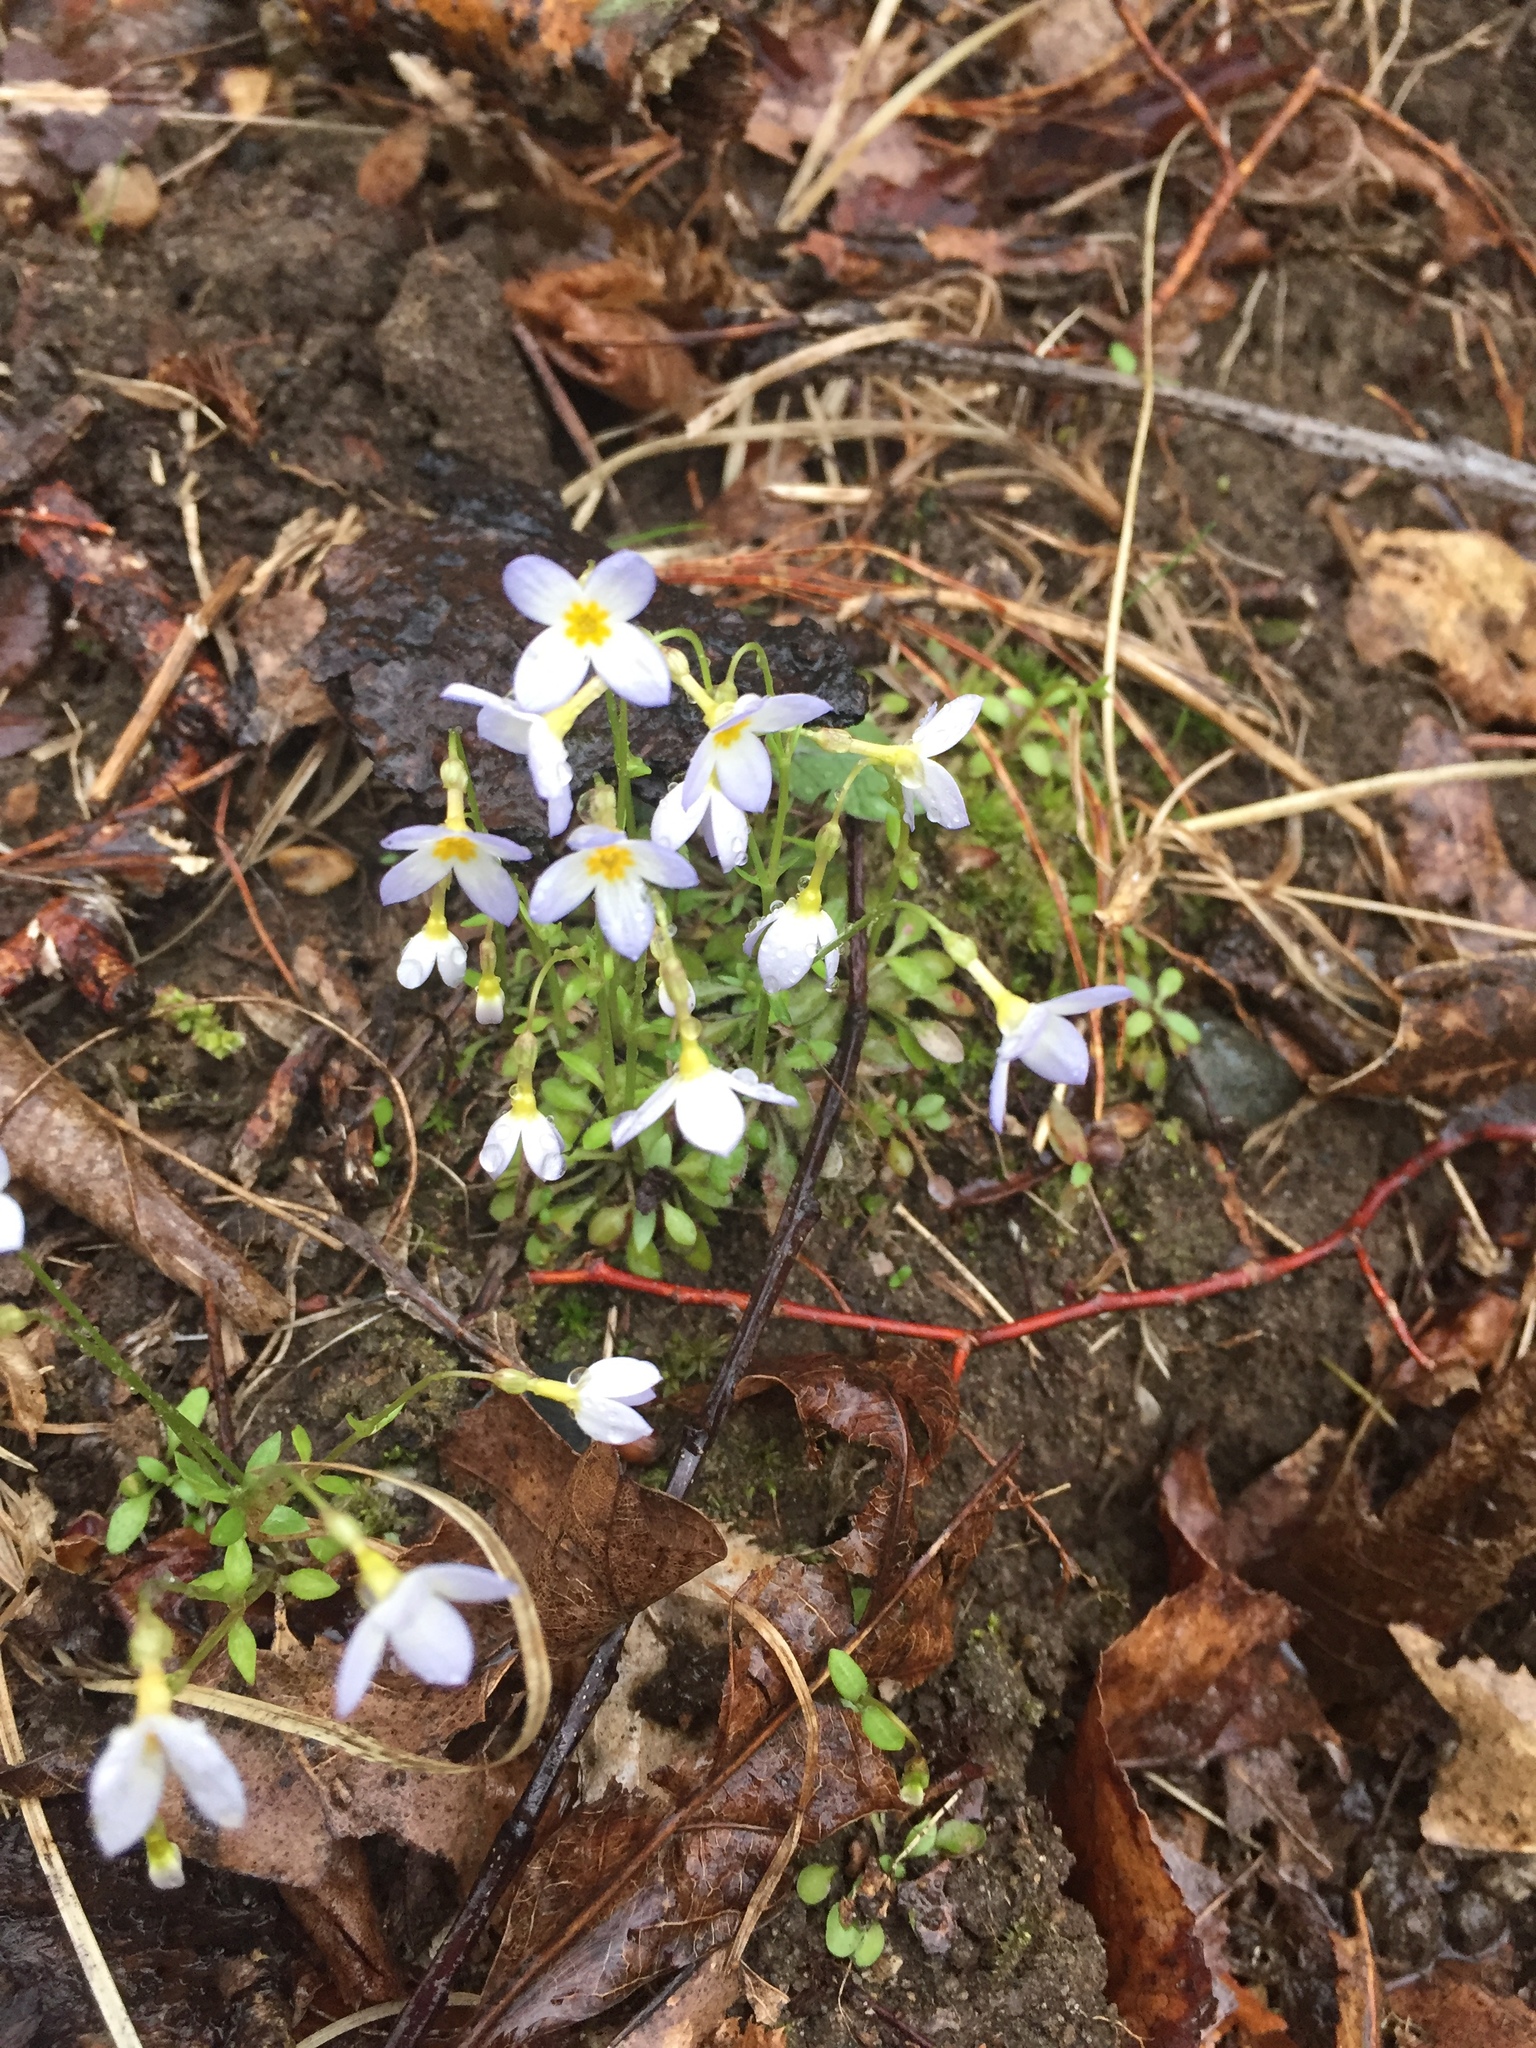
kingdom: Plantae
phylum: Tracheophyta
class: Magnoliopsida
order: Gentianales
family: Rubiaceae
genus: Houstonia
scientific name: Houstonia caerulea
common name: Bluets
